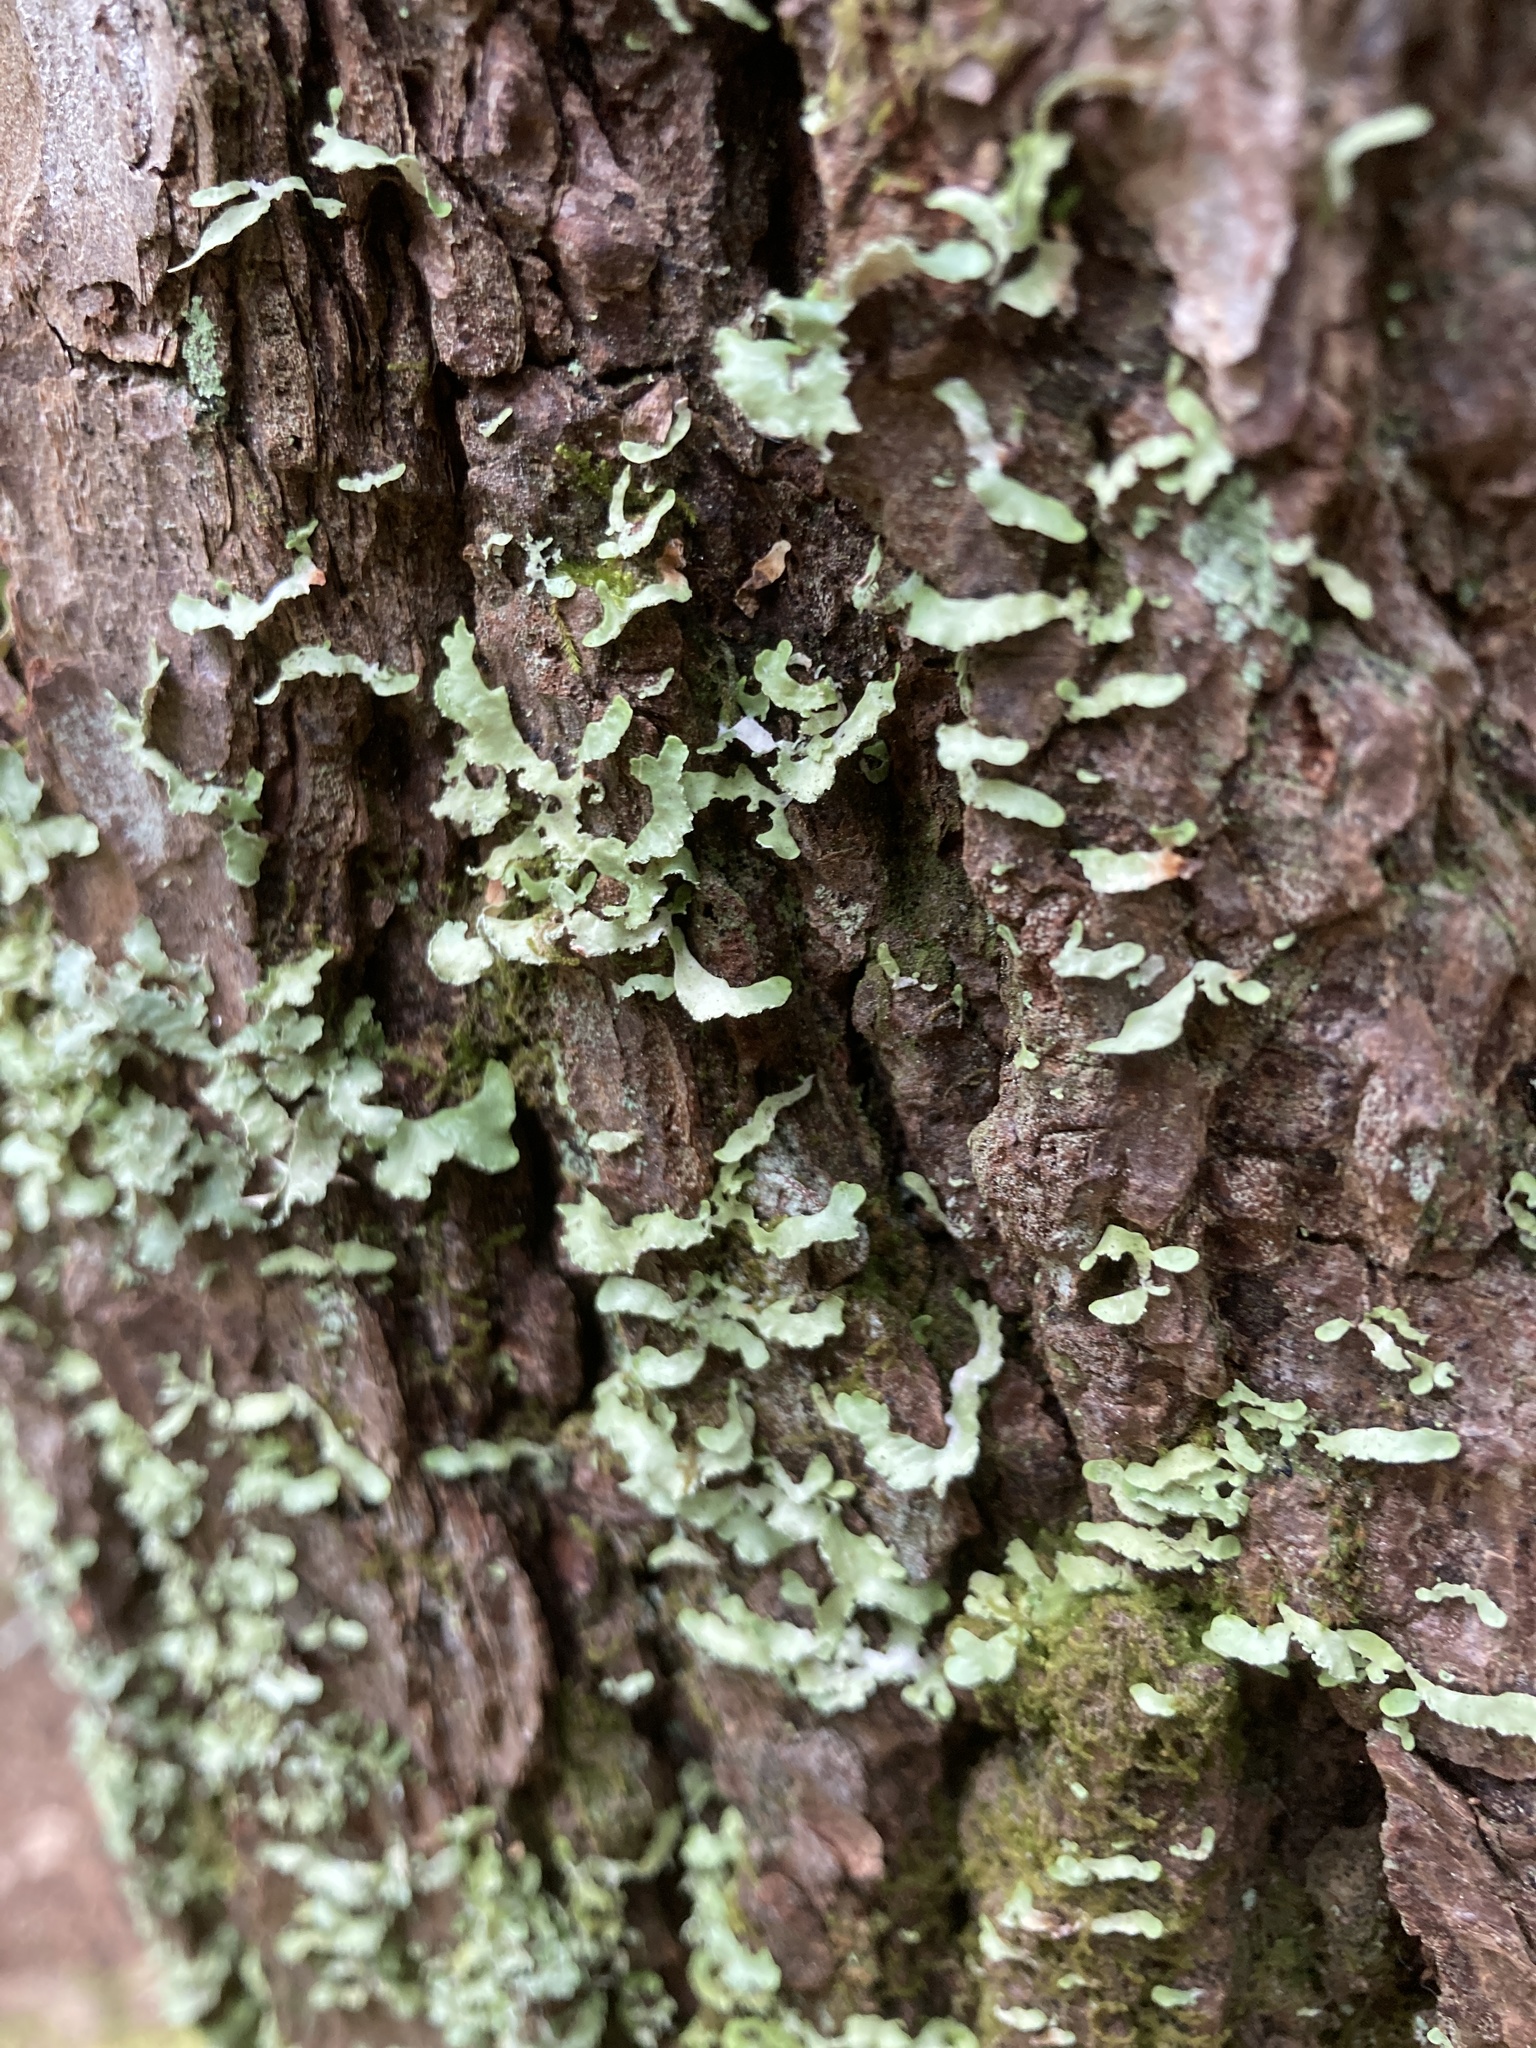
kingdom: Fungi
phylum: Ascomycota
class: Lecanoromycetes
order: Lecanorales
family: Parmeliaceae
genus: Usnocetraria
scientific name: Usnocetraria oakesiana
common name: Yellow ribbon lichen
